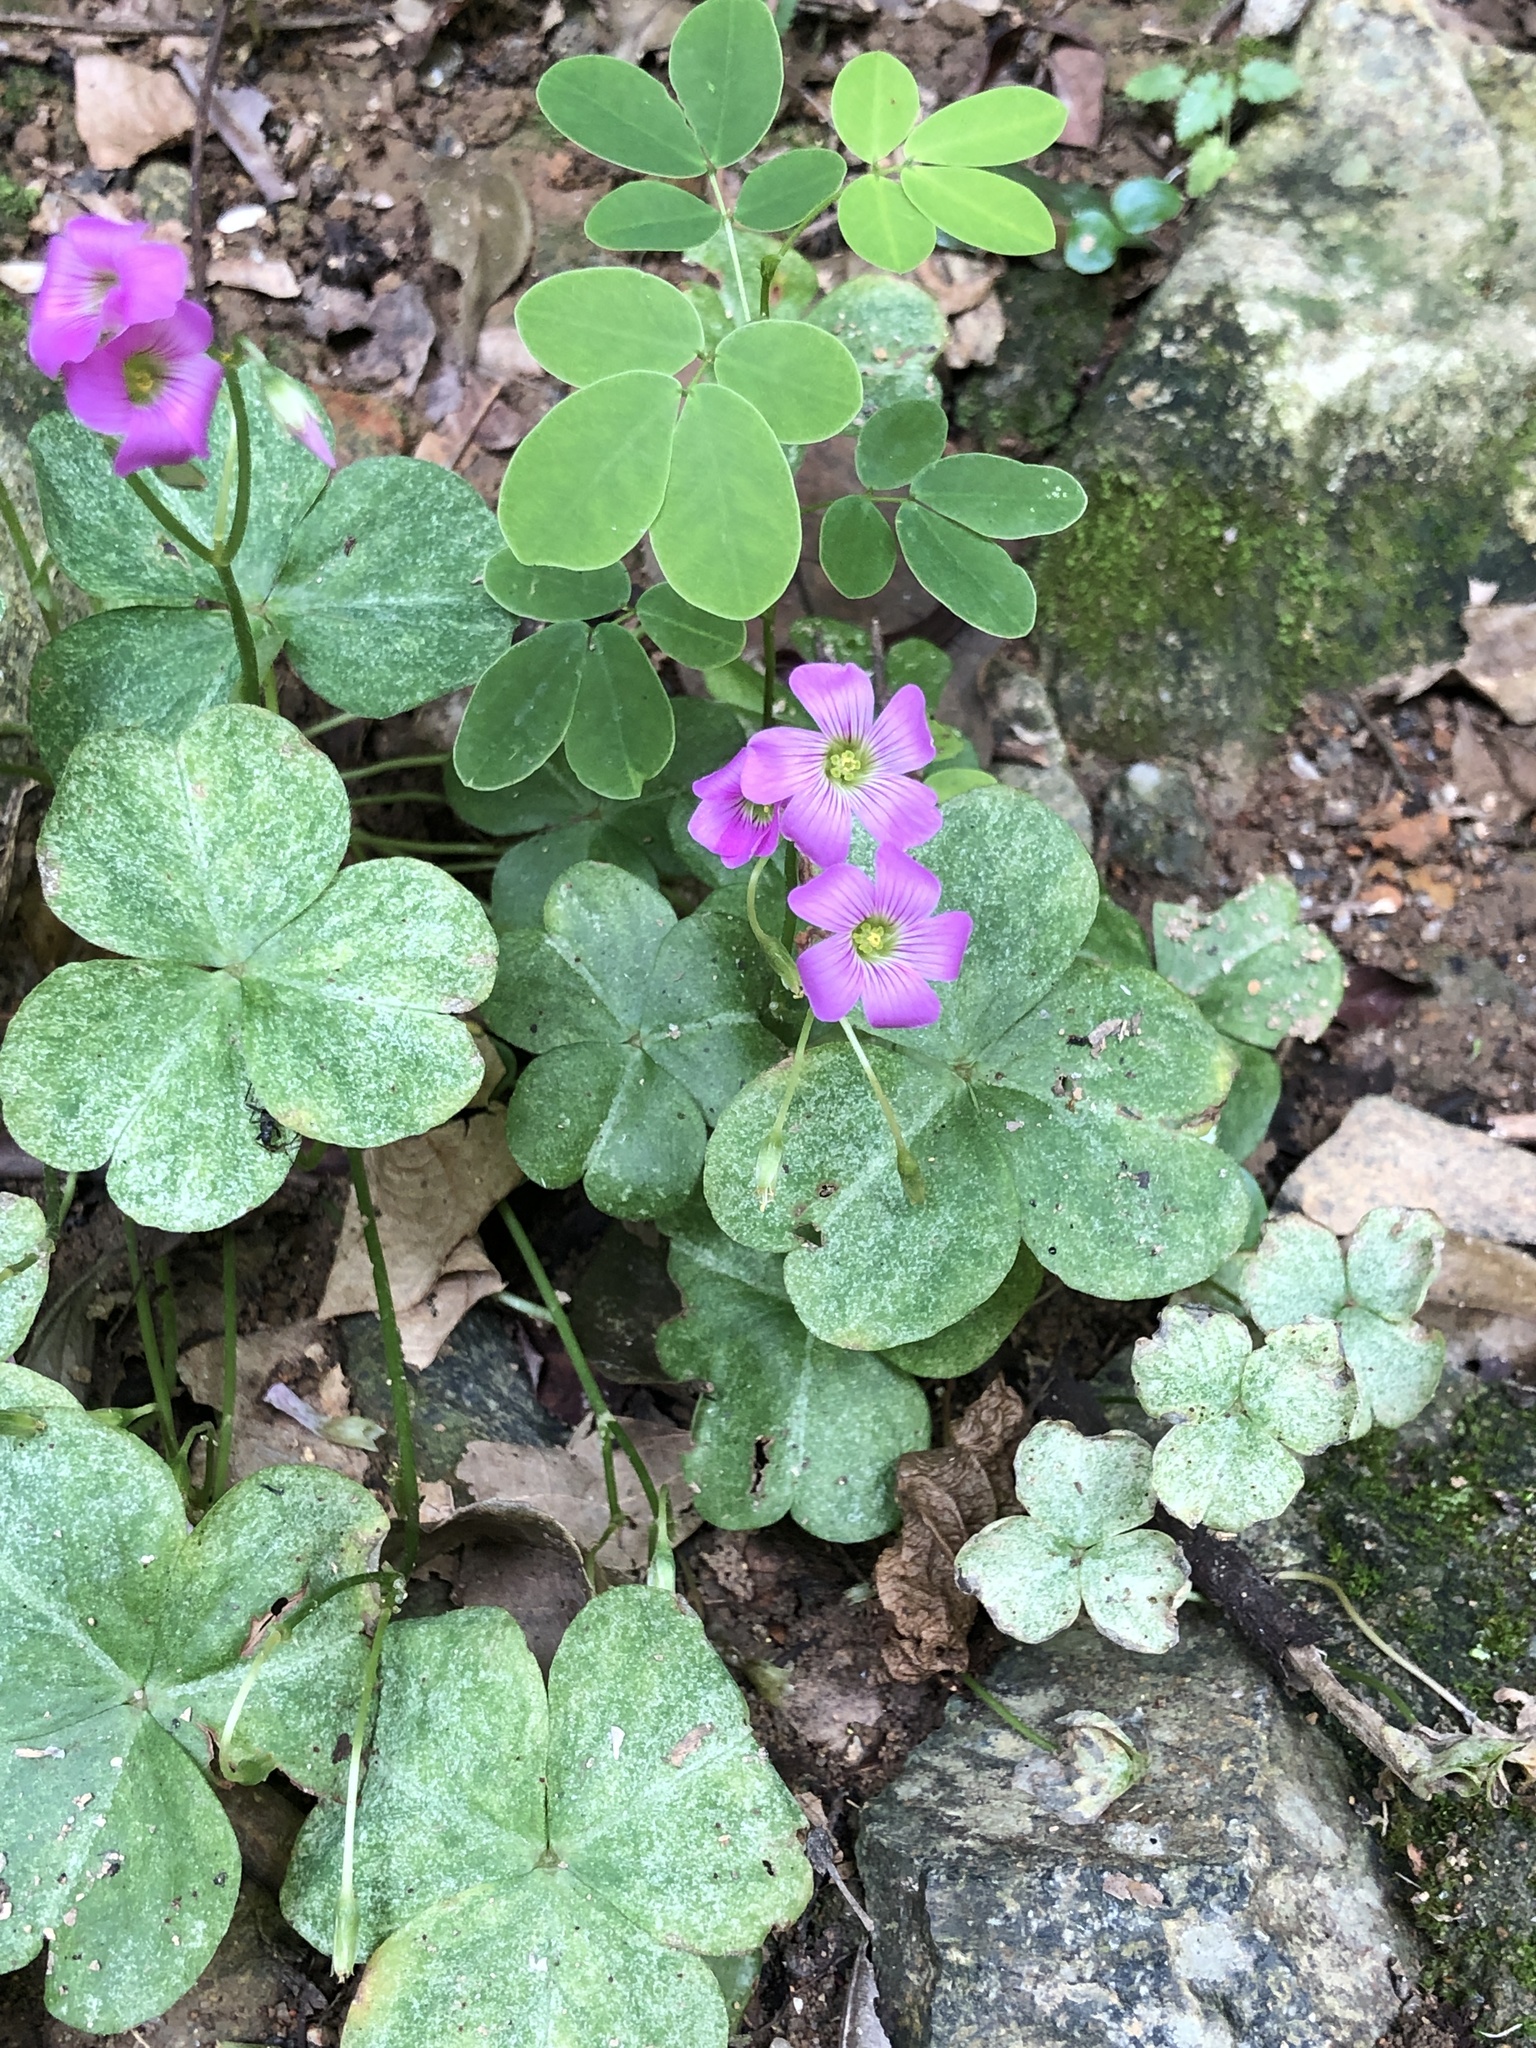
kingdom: Plantae
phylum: Tracheophyta
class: Magnoliopsida
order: Oxalidales
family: Oxalidaceae
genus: Oxalis
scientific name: Oxalis debilis
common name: Large-flowered pink-sorrel
